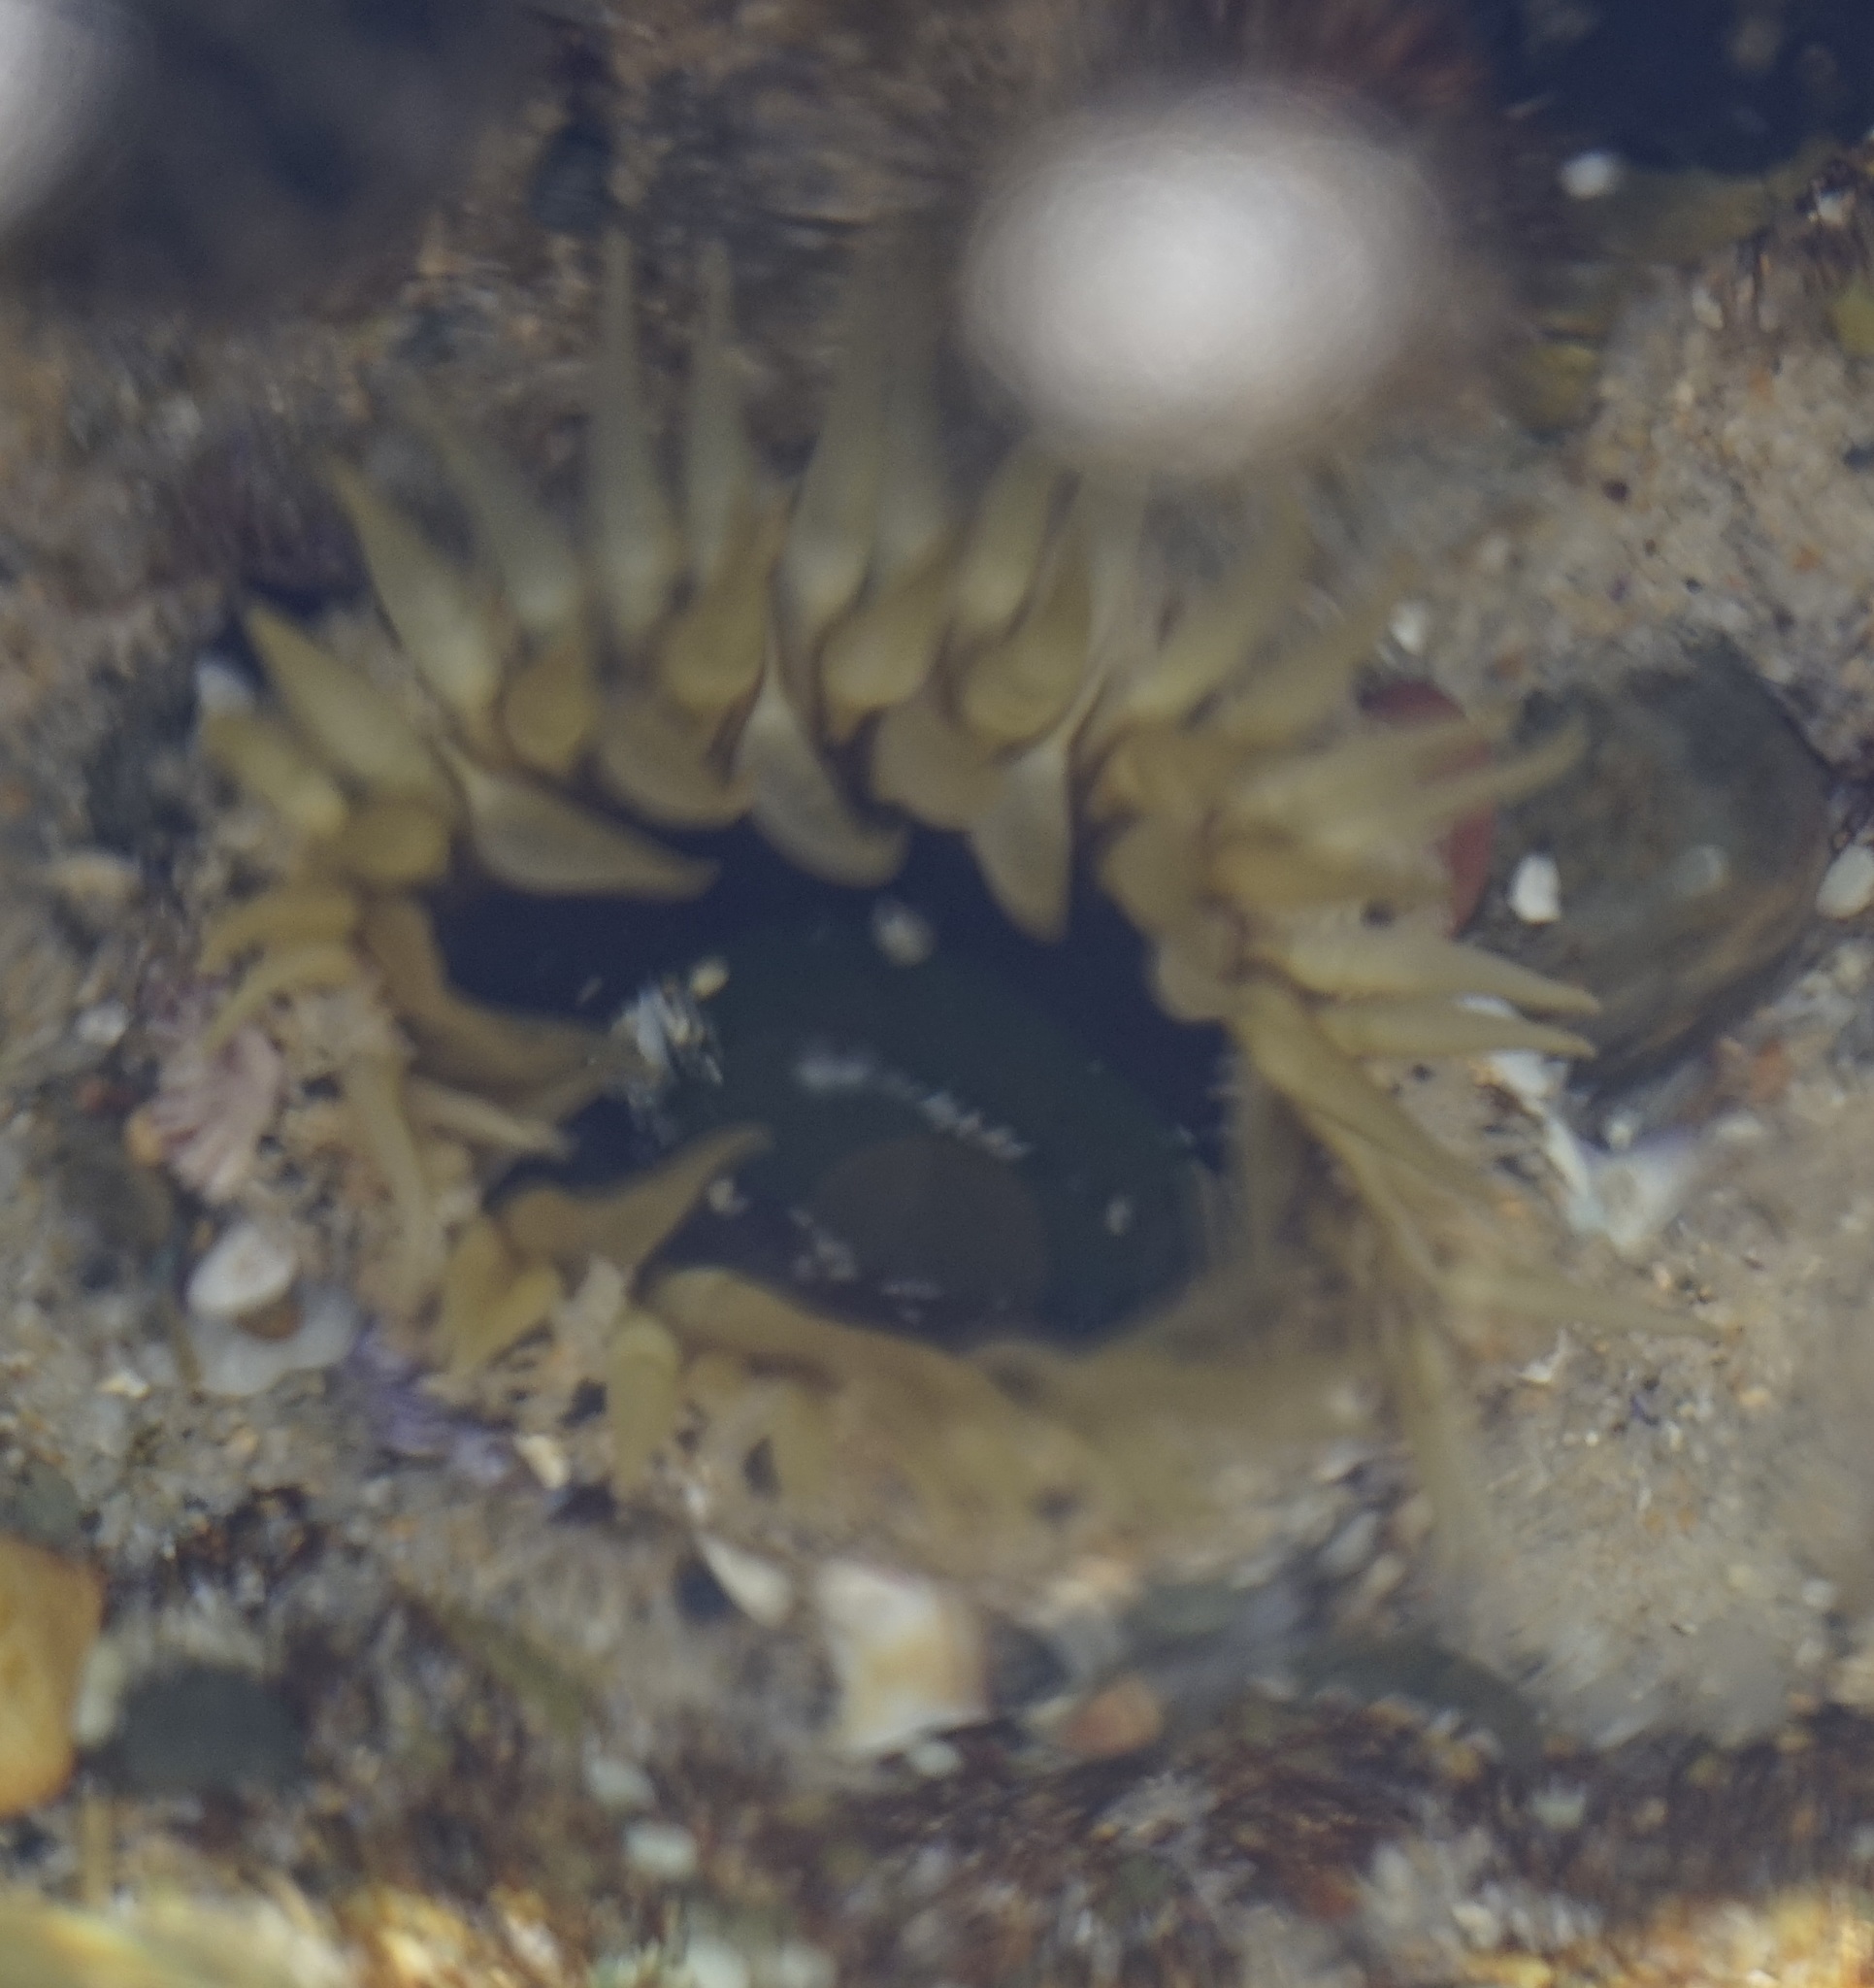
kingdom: Animalia
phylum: Cnidaria
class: Anthozoa
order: Actiniaria
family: Actiniidae
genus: Oulactis
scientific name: Oulactis muscosa
